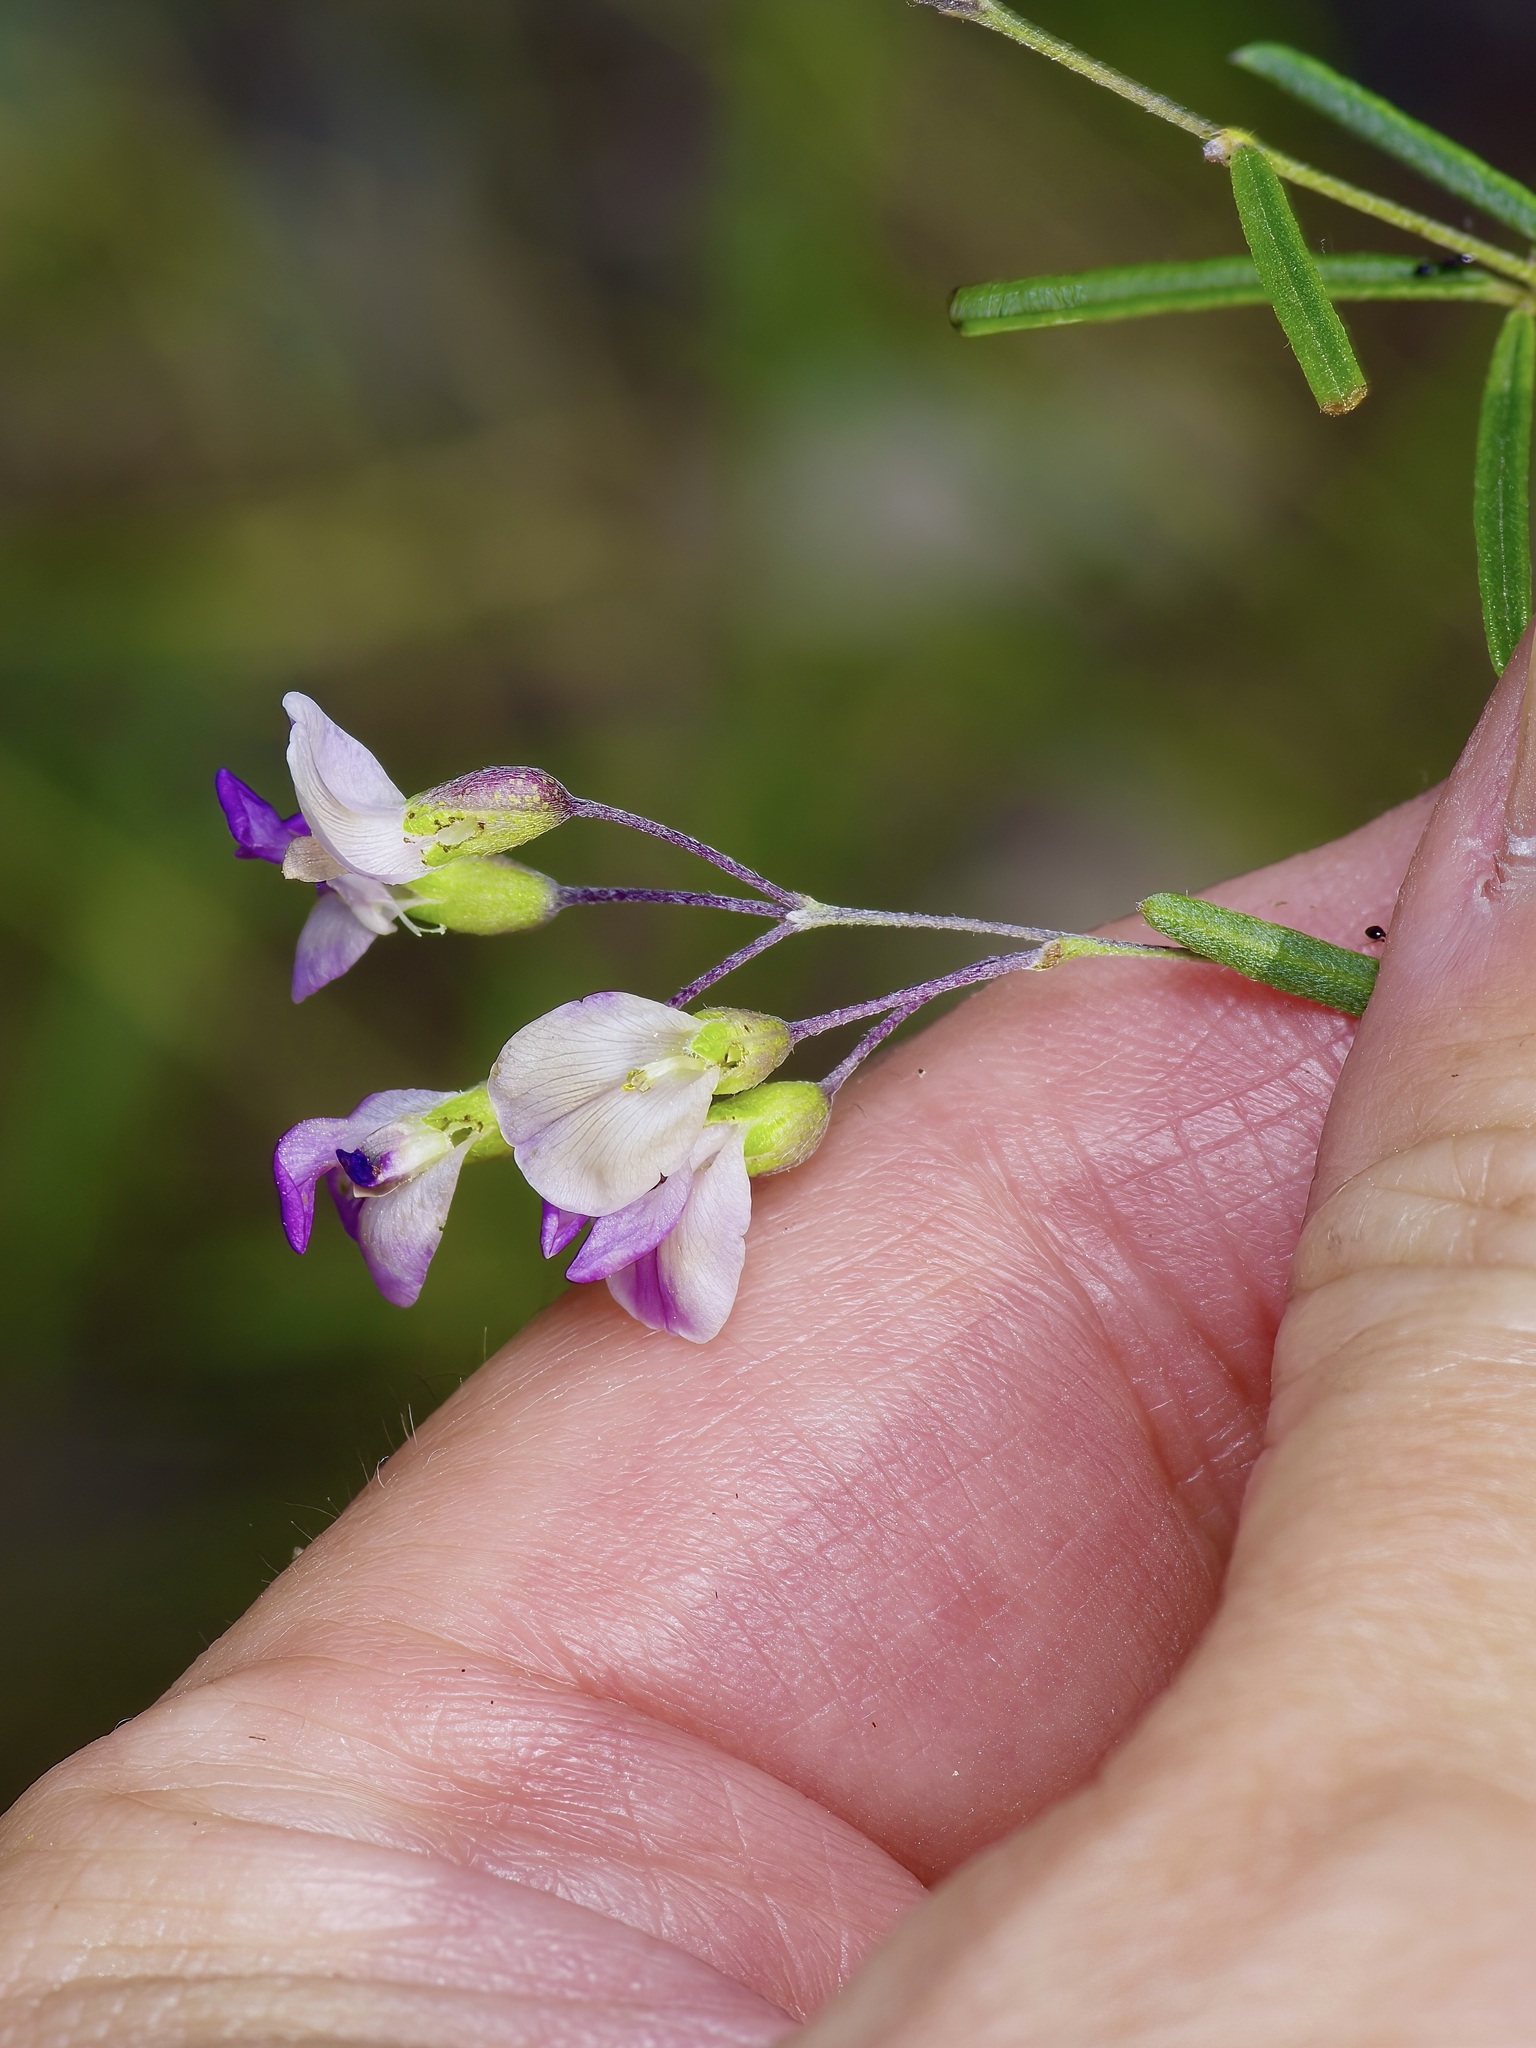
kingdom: Plantae
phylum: Tracheophyta
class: Magnoliopsida
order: Fabales
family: Fabaceae
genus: Pediomelum
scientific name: Pediomelum linearifolium
